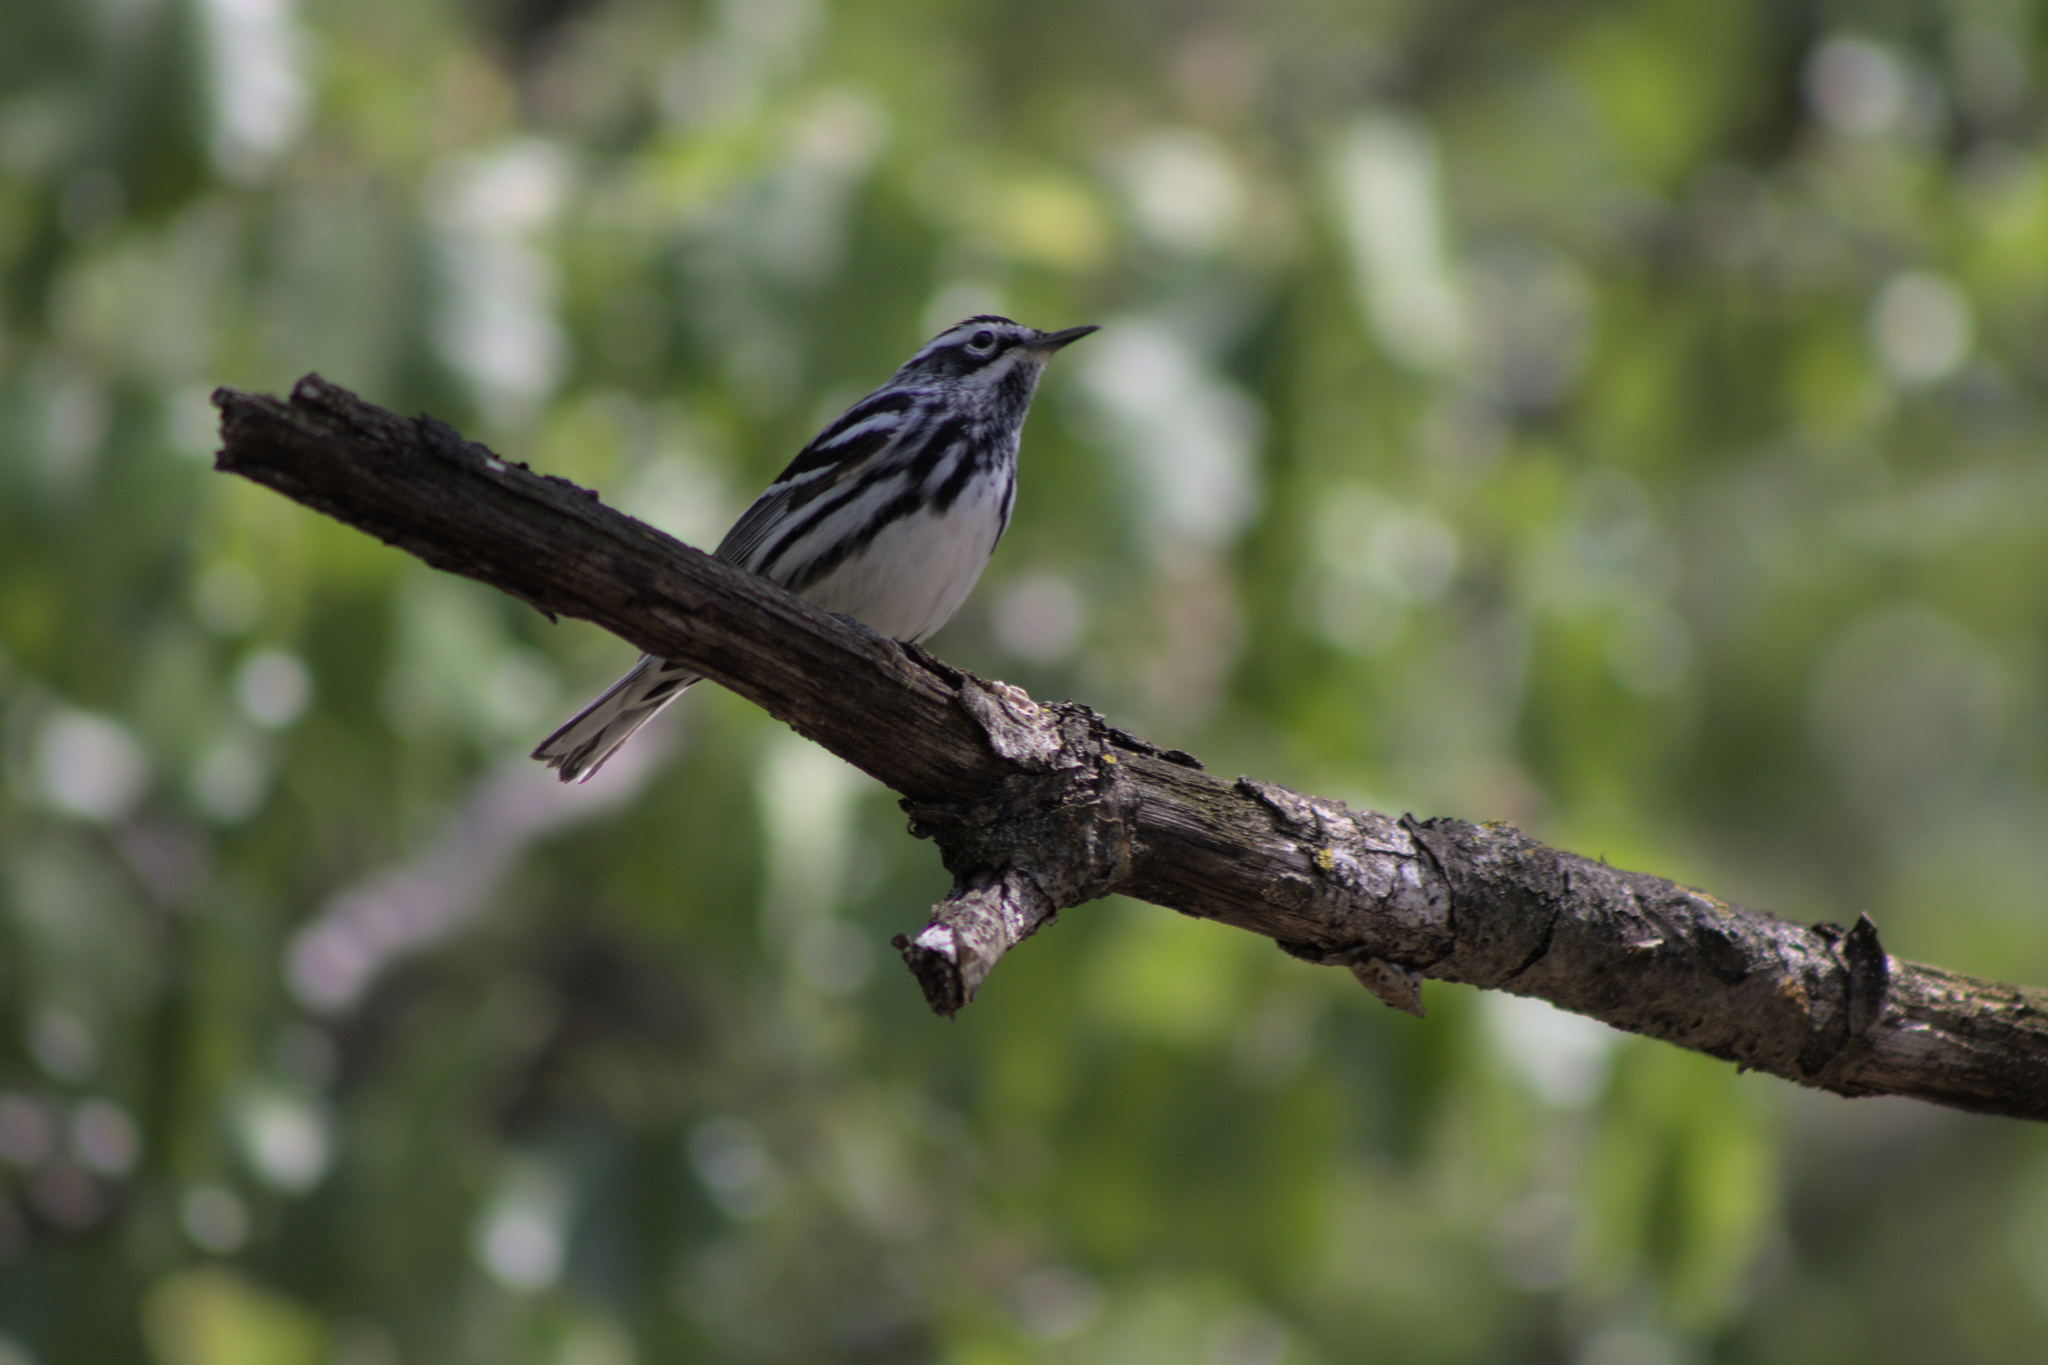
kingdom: Animalia
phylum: Chordata
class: Aves
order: Passeriformes
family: Parulidae
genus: Mniotilta
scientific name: Mniotilta varia
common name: Black-and-white warbler
